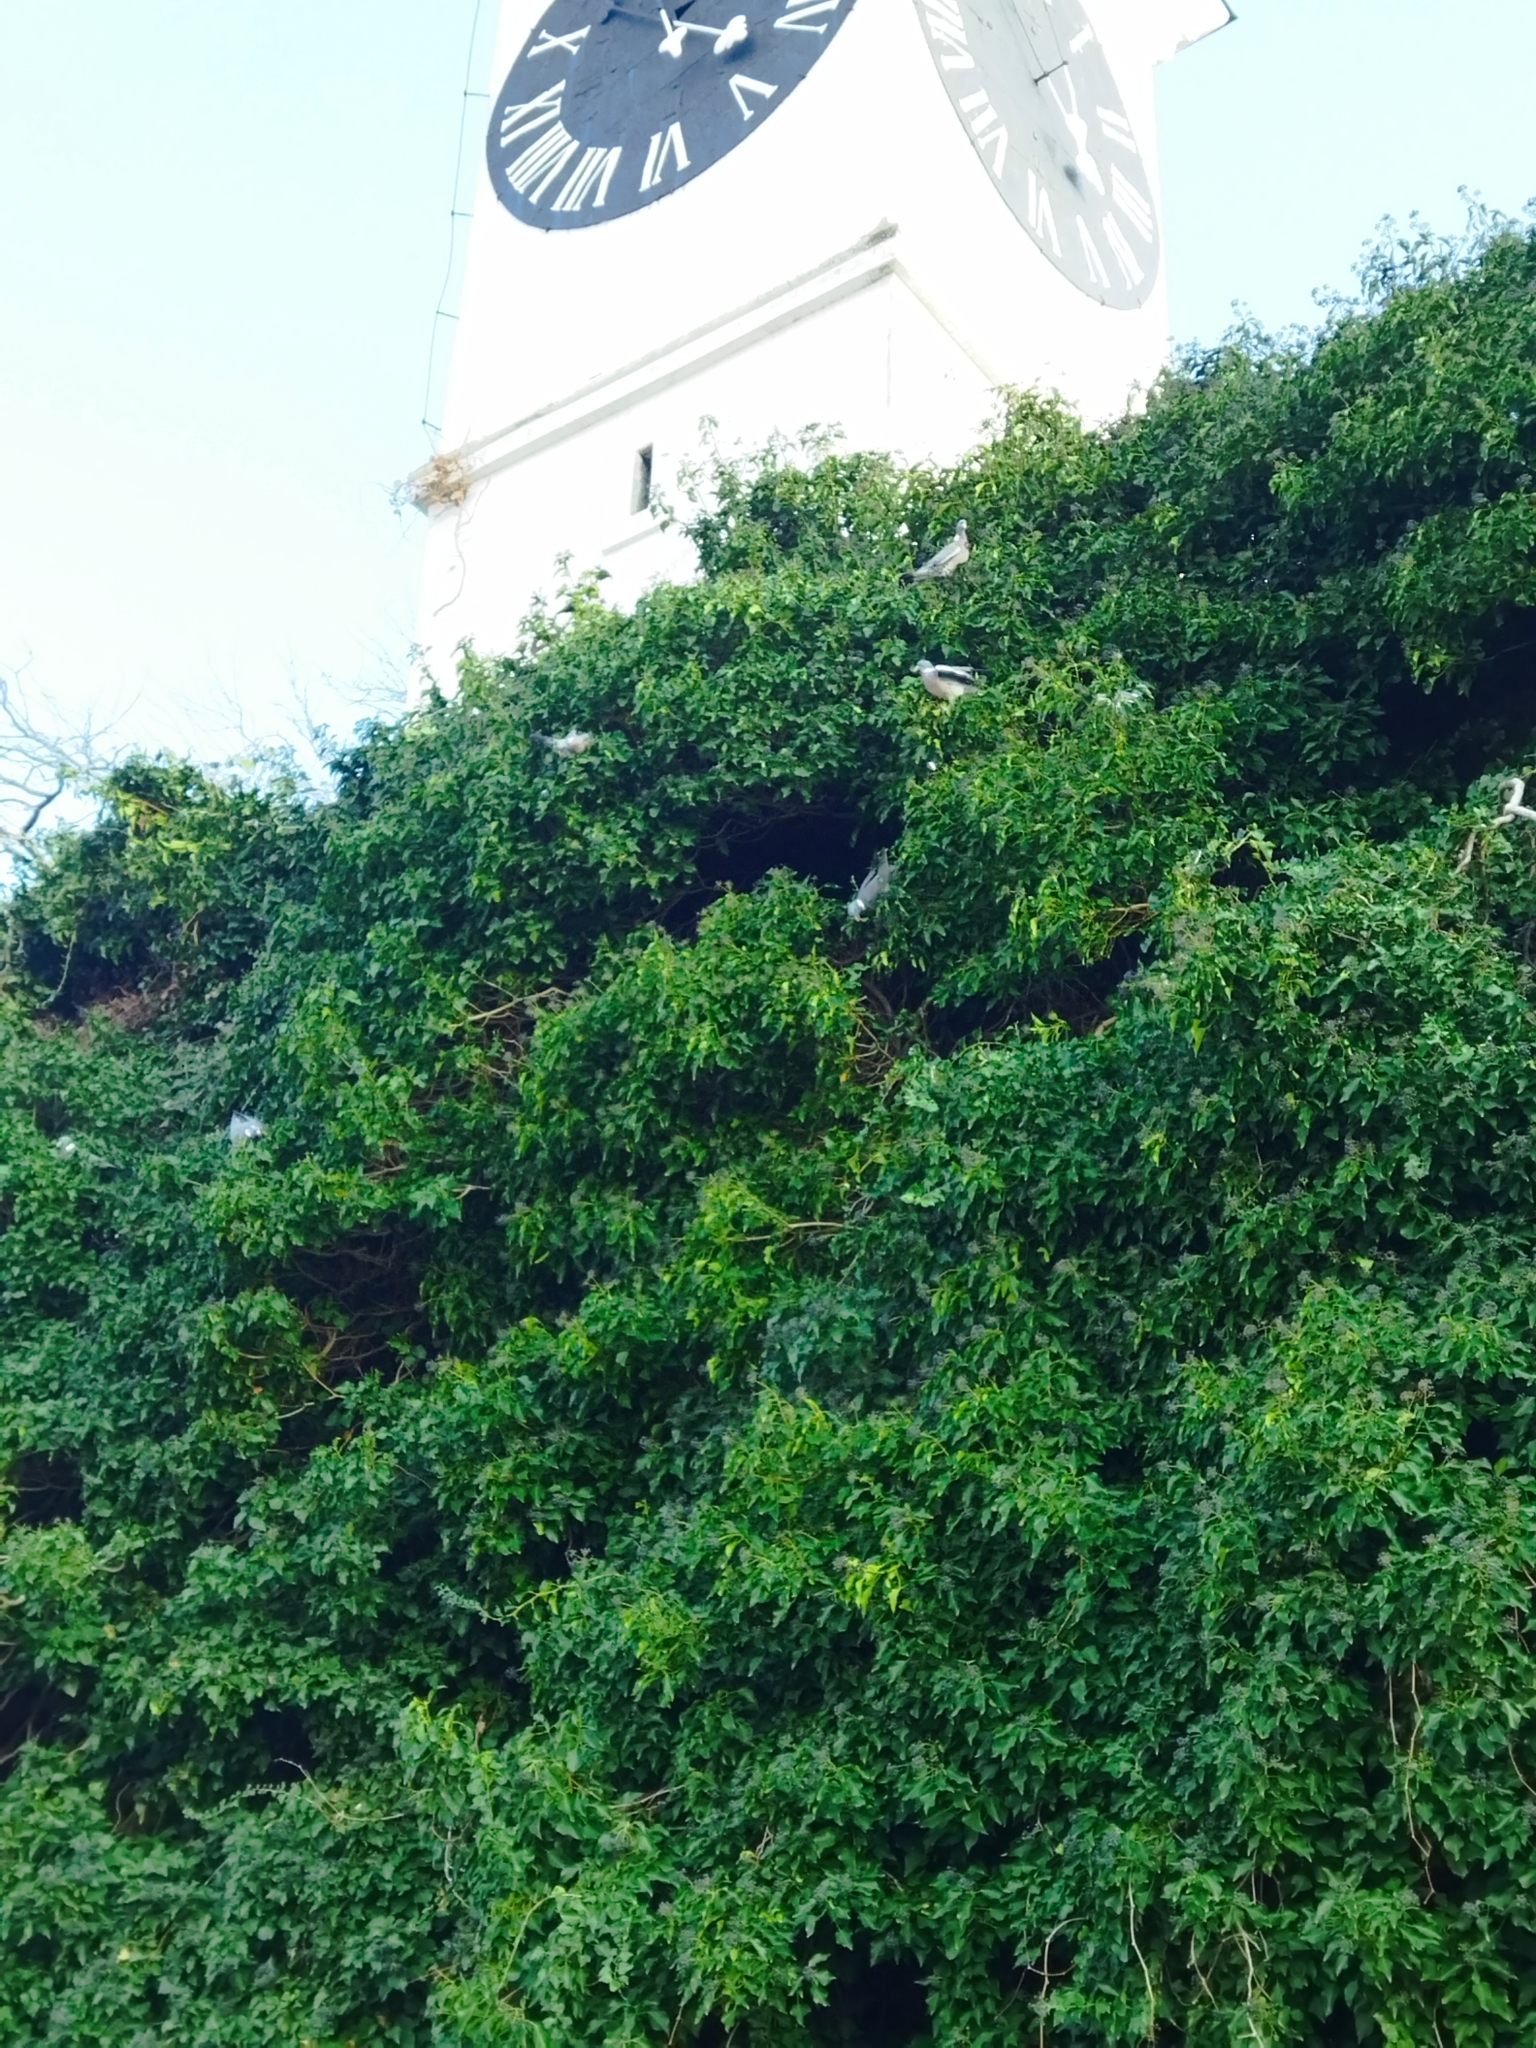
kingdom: Animalia
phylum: Chordata
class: Aves
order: Columbiformes
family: Columbidae
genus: Columba
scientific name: Columba palumbus
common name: Common wood pigeon
